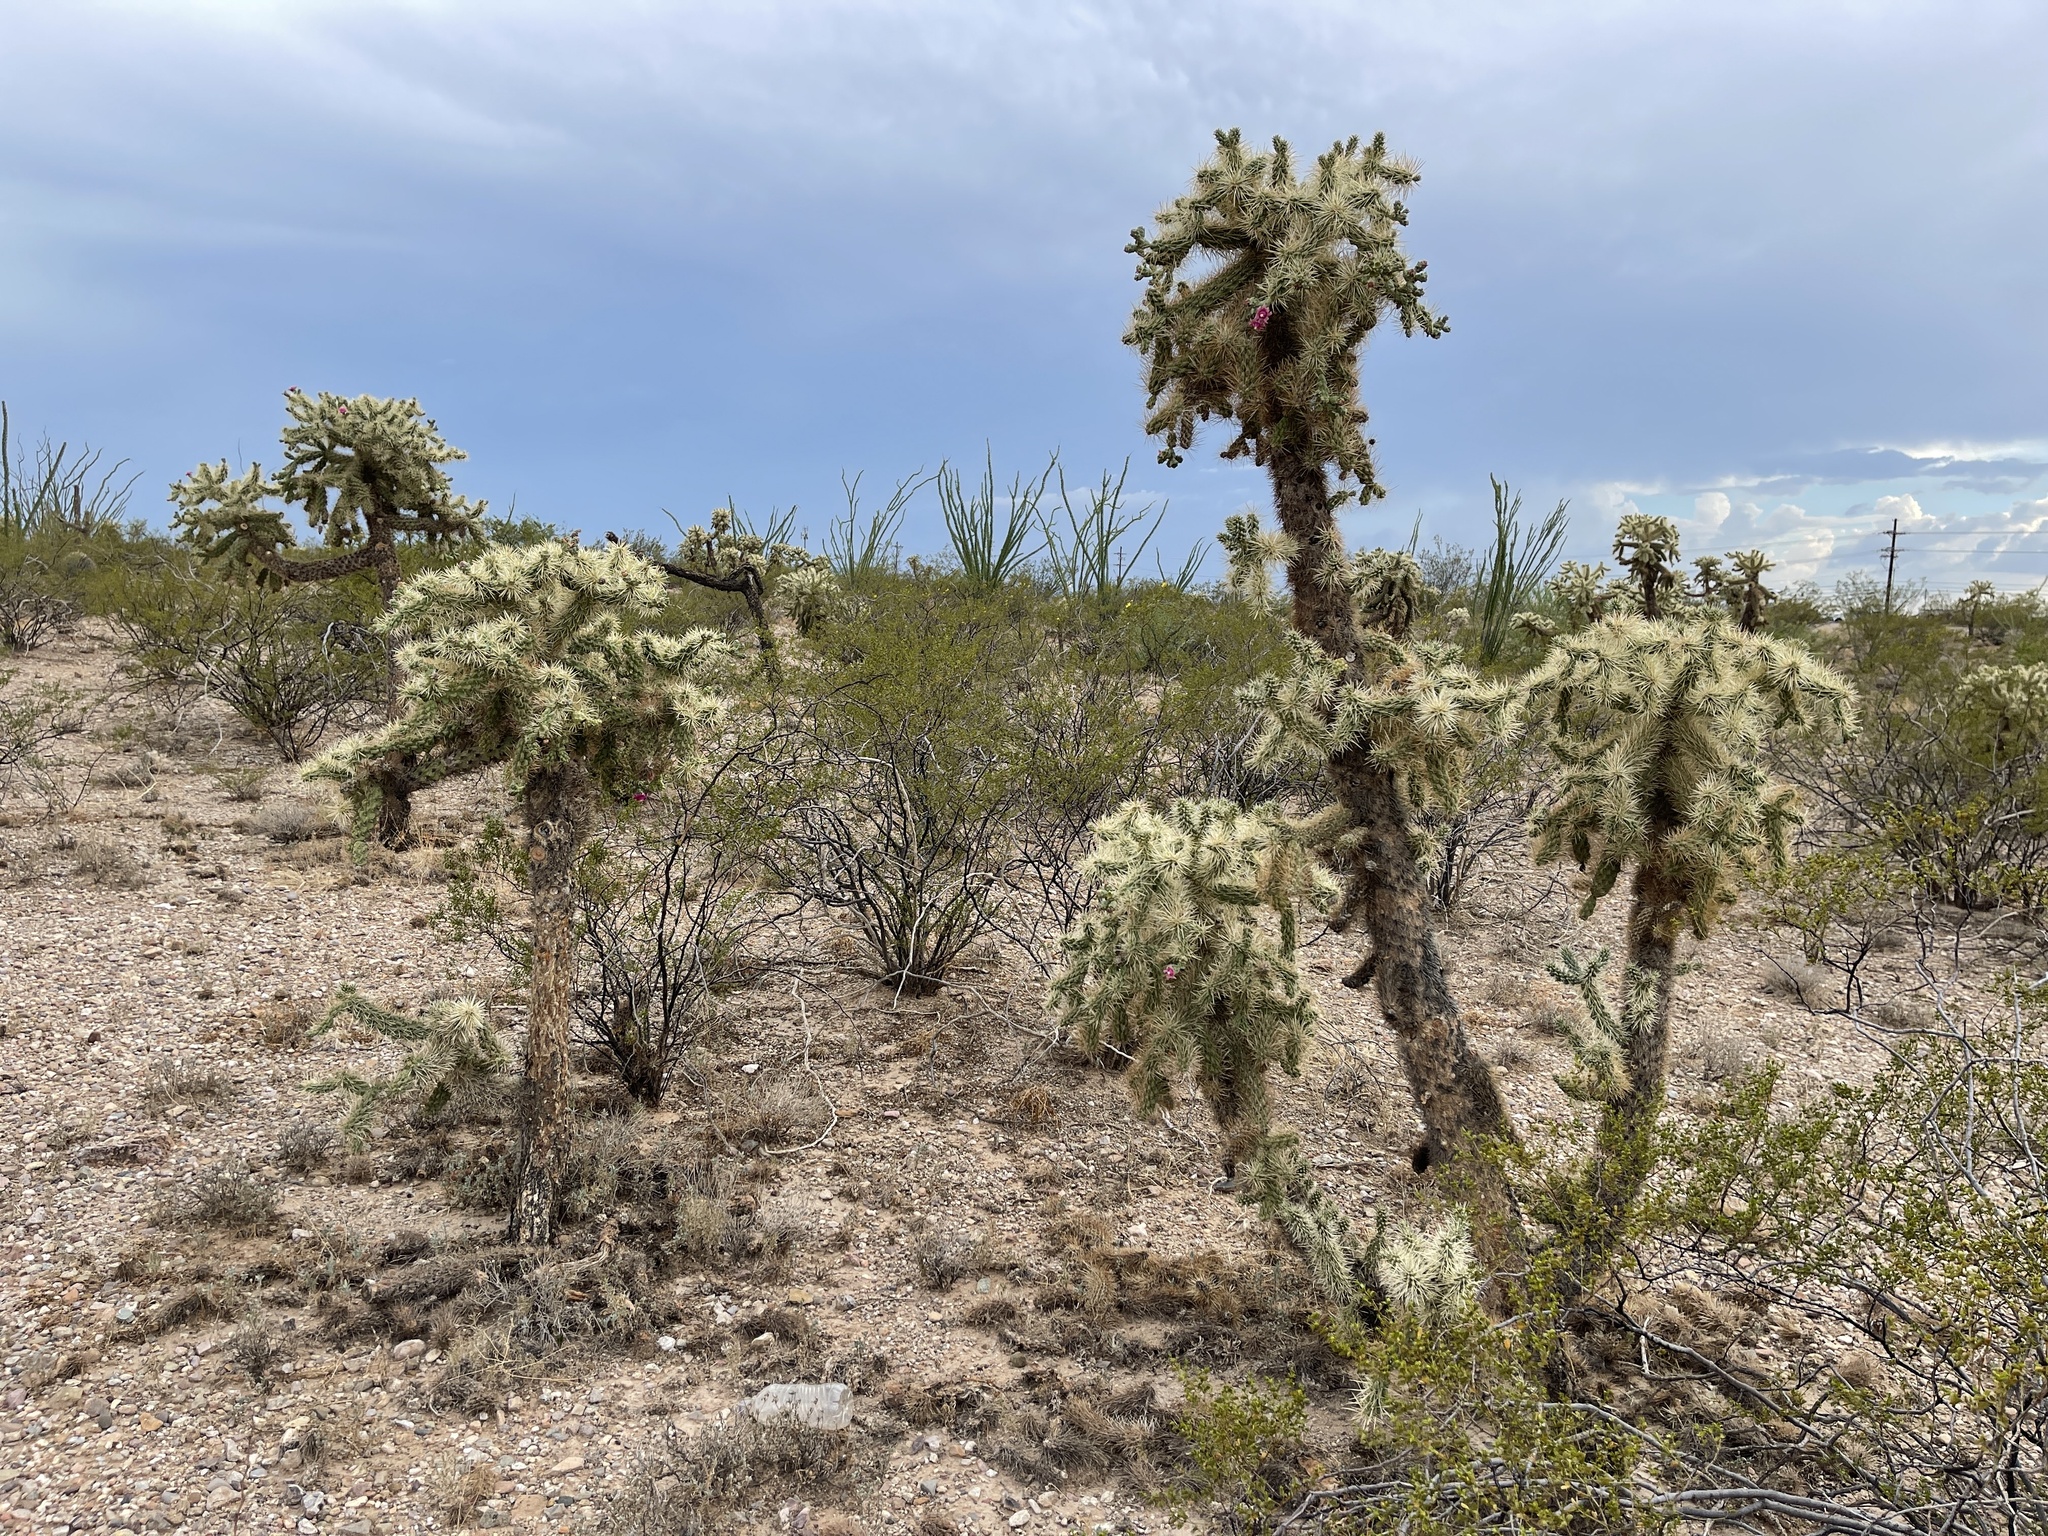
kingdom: Plantae
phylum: Tracheophyta
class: Magnoliopsida
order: Caryophyllales
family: Cactaceae
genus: Cylindropuntia
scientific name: Cylindropuntia fulgida
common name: Jumping cholla
